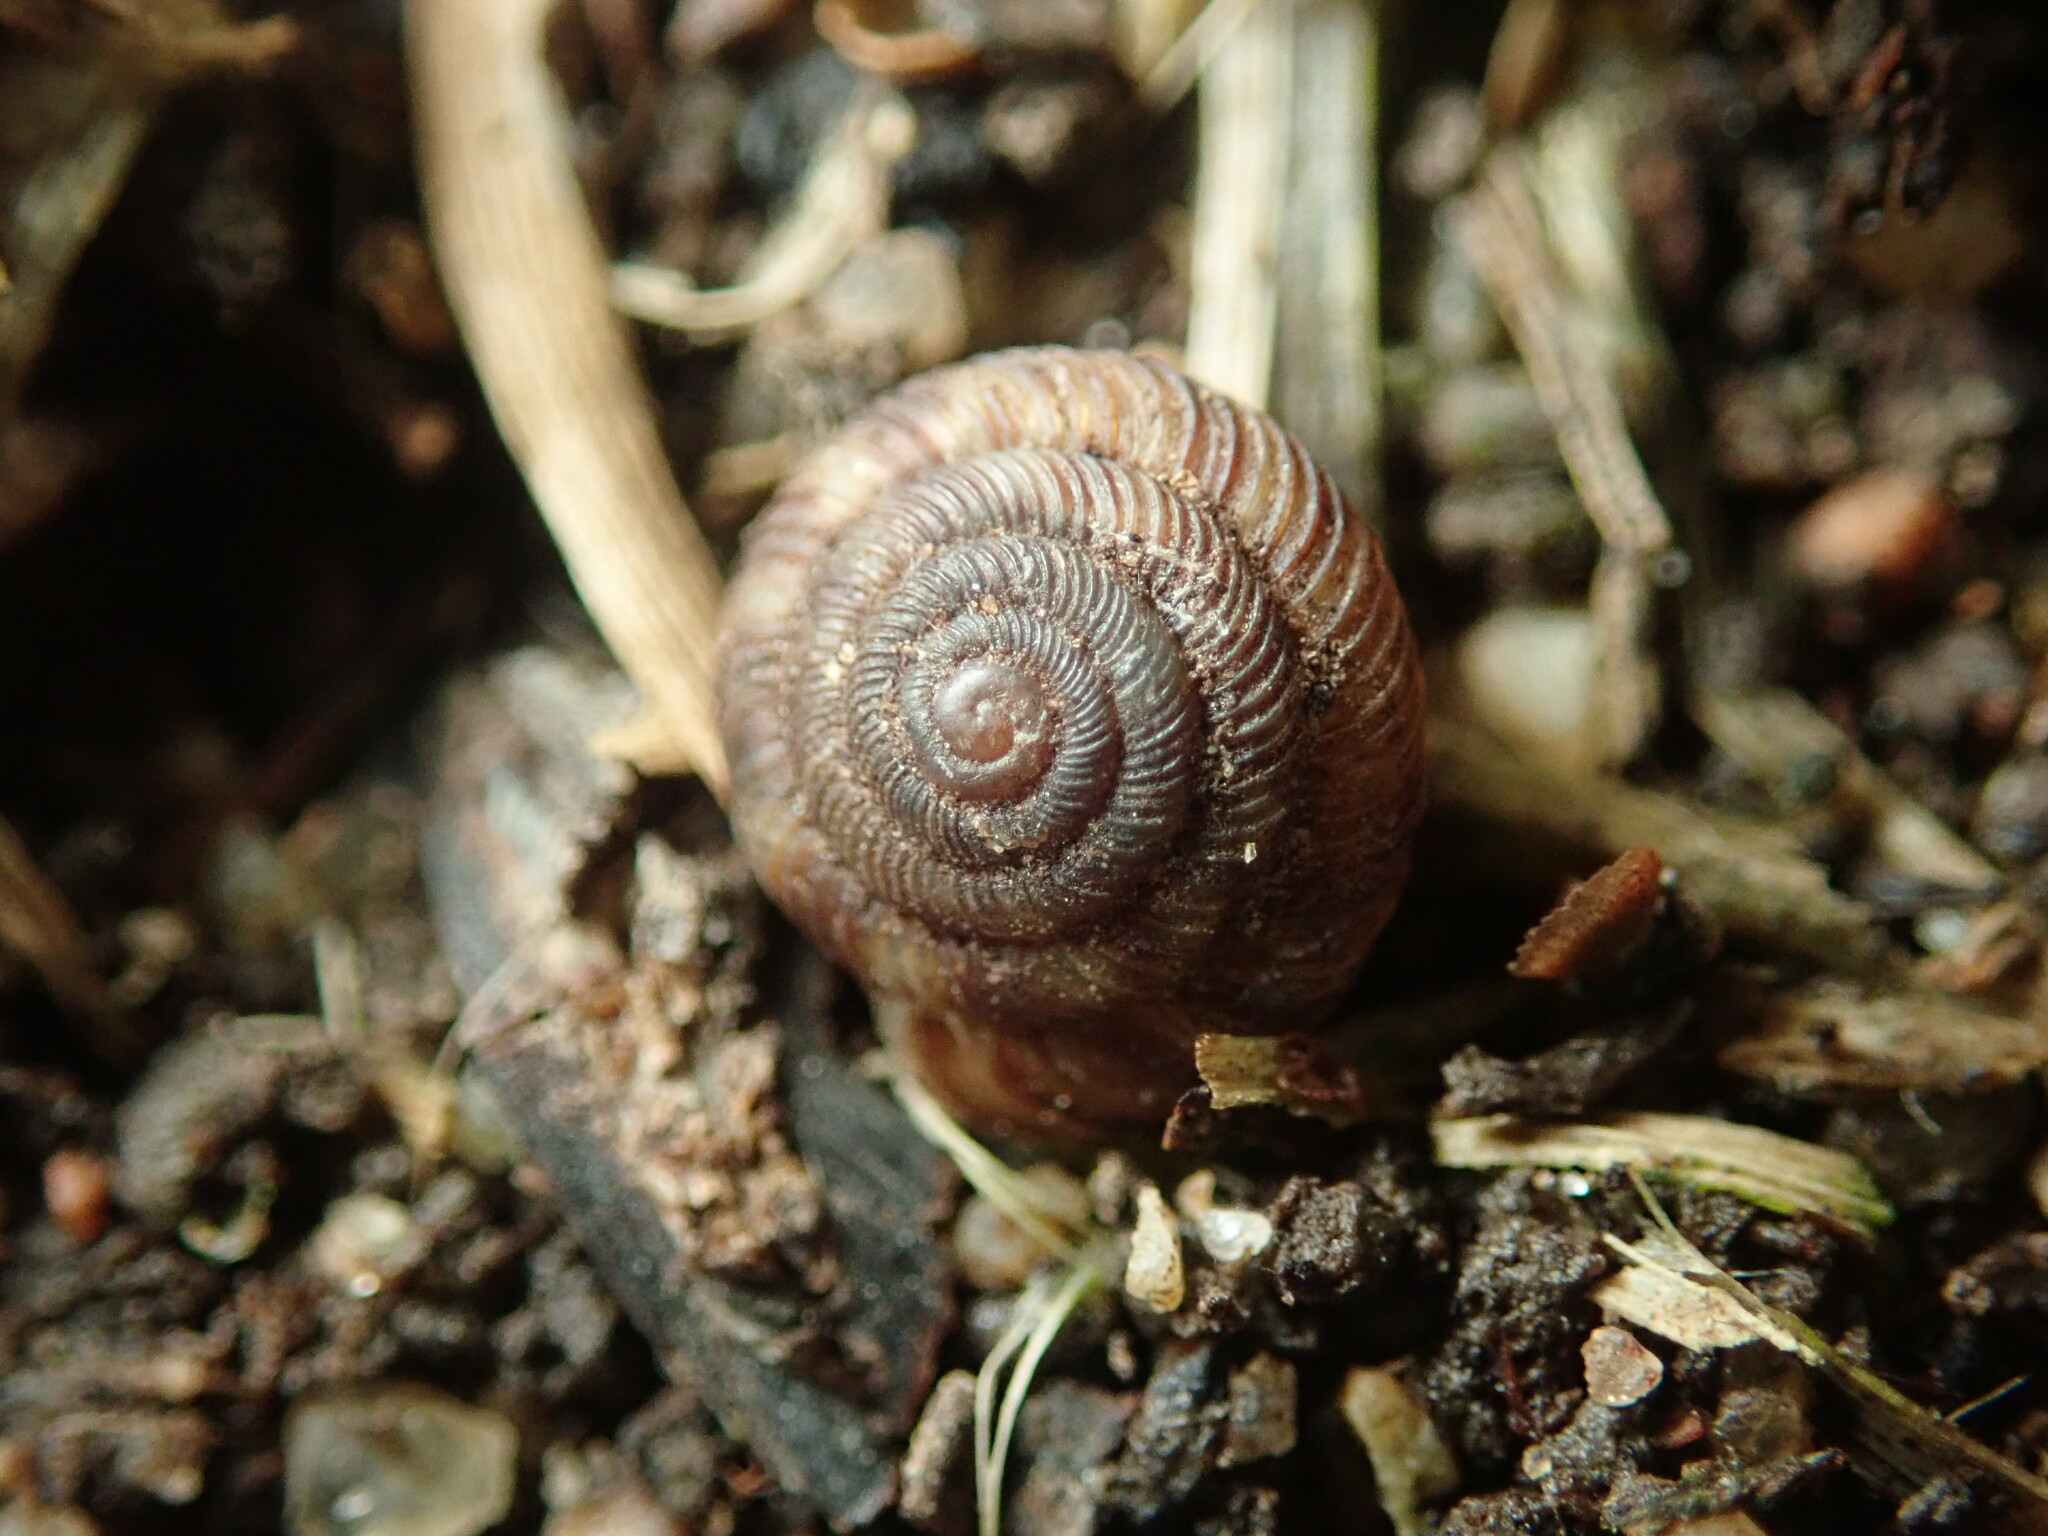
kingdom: Animalia
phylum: Mollusca
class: Gastropoda
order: Stylommatophora
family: Discidae
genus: Discus
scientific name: Discus rotundatus
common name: Rounded snail
